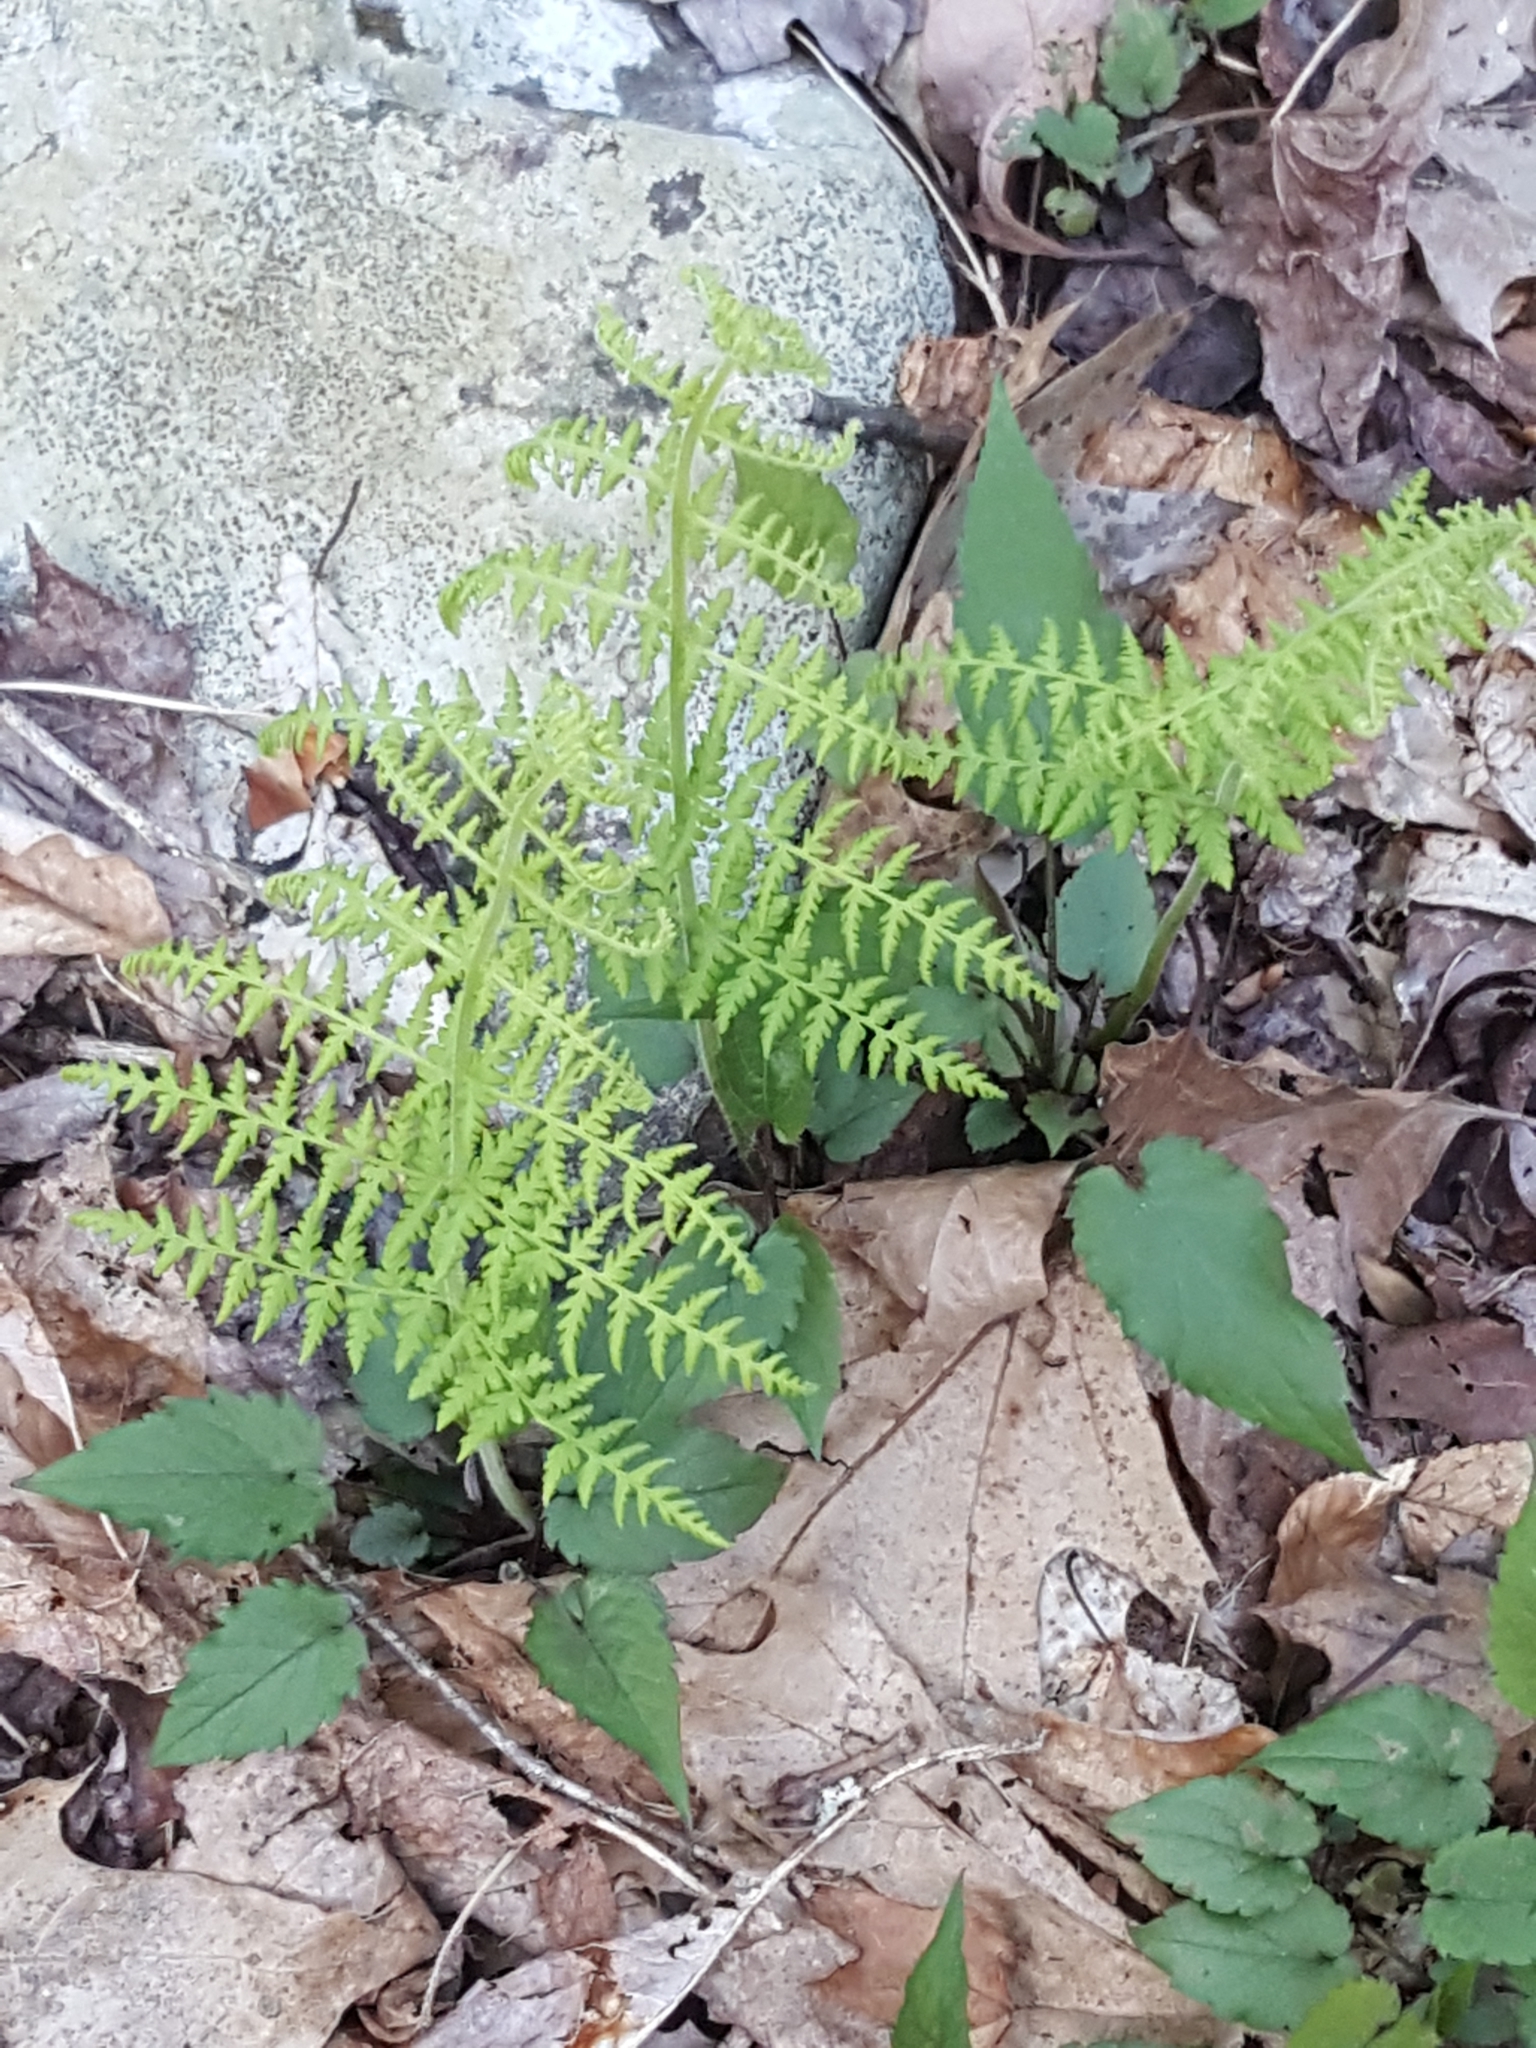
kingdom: Plantae
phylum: Tracheophyta
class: Polypodiopsida
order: Polypodiales
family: Dennstaedtiaceae
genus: Sitobolium
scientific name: Sitobolium punctilobum
